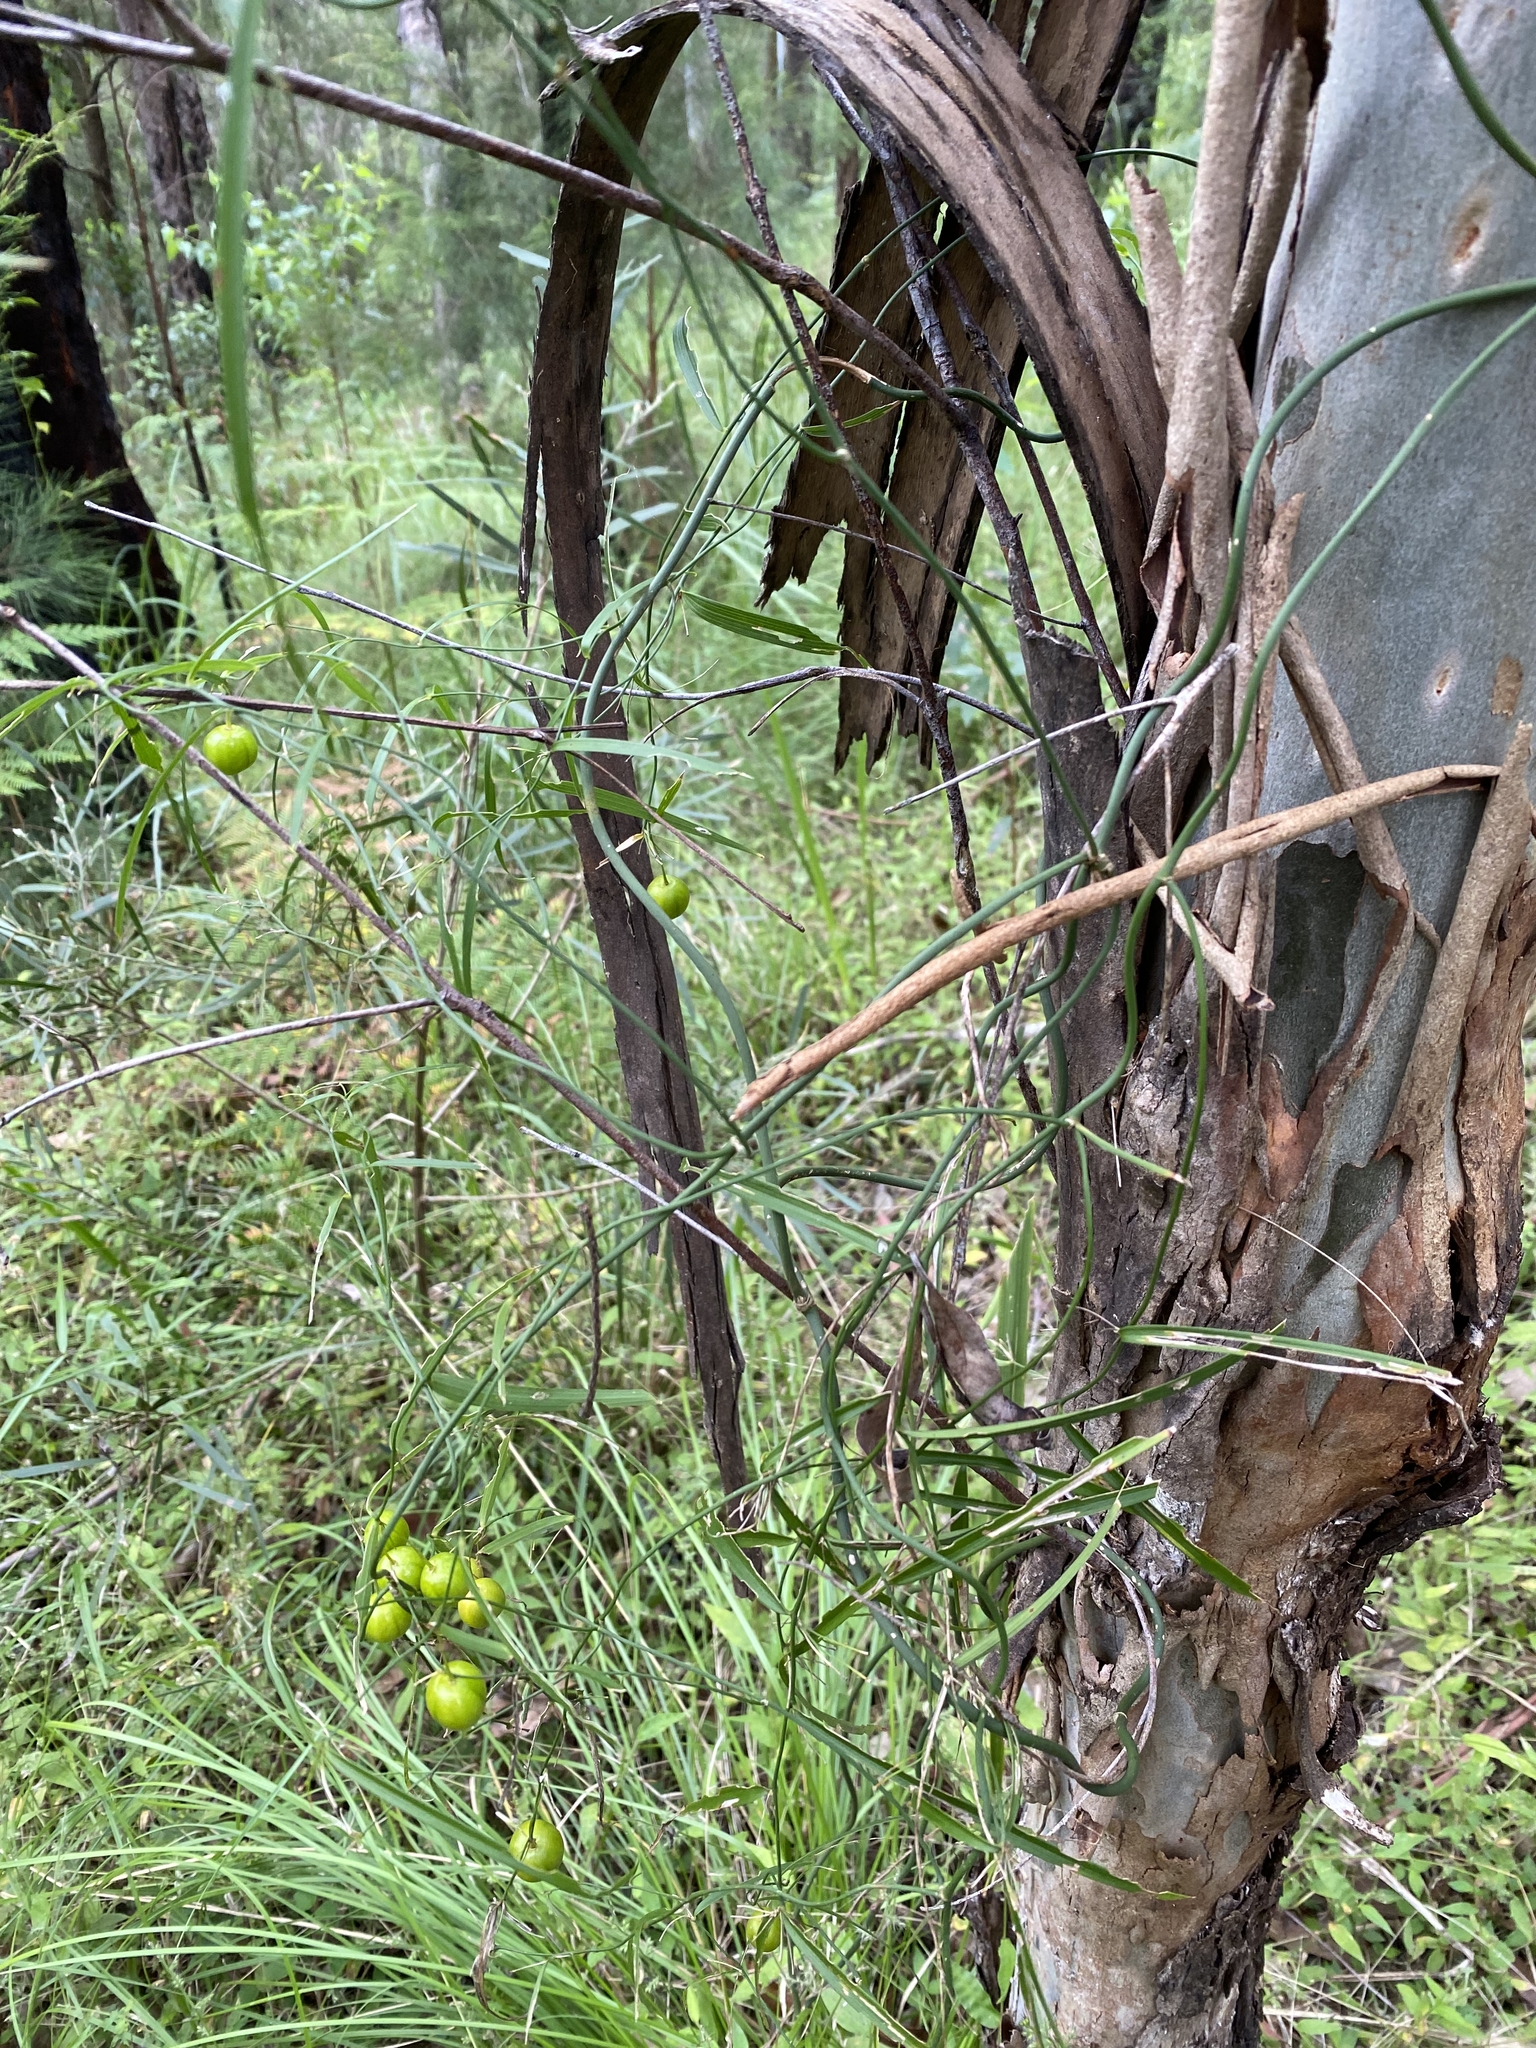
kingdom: Plantae
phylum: Tracheophyta
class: Liliopsida
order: Asparagales
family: Asparagaceae
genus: Eustrephus
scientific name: Eustrephus latifolius
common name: Orangevine
